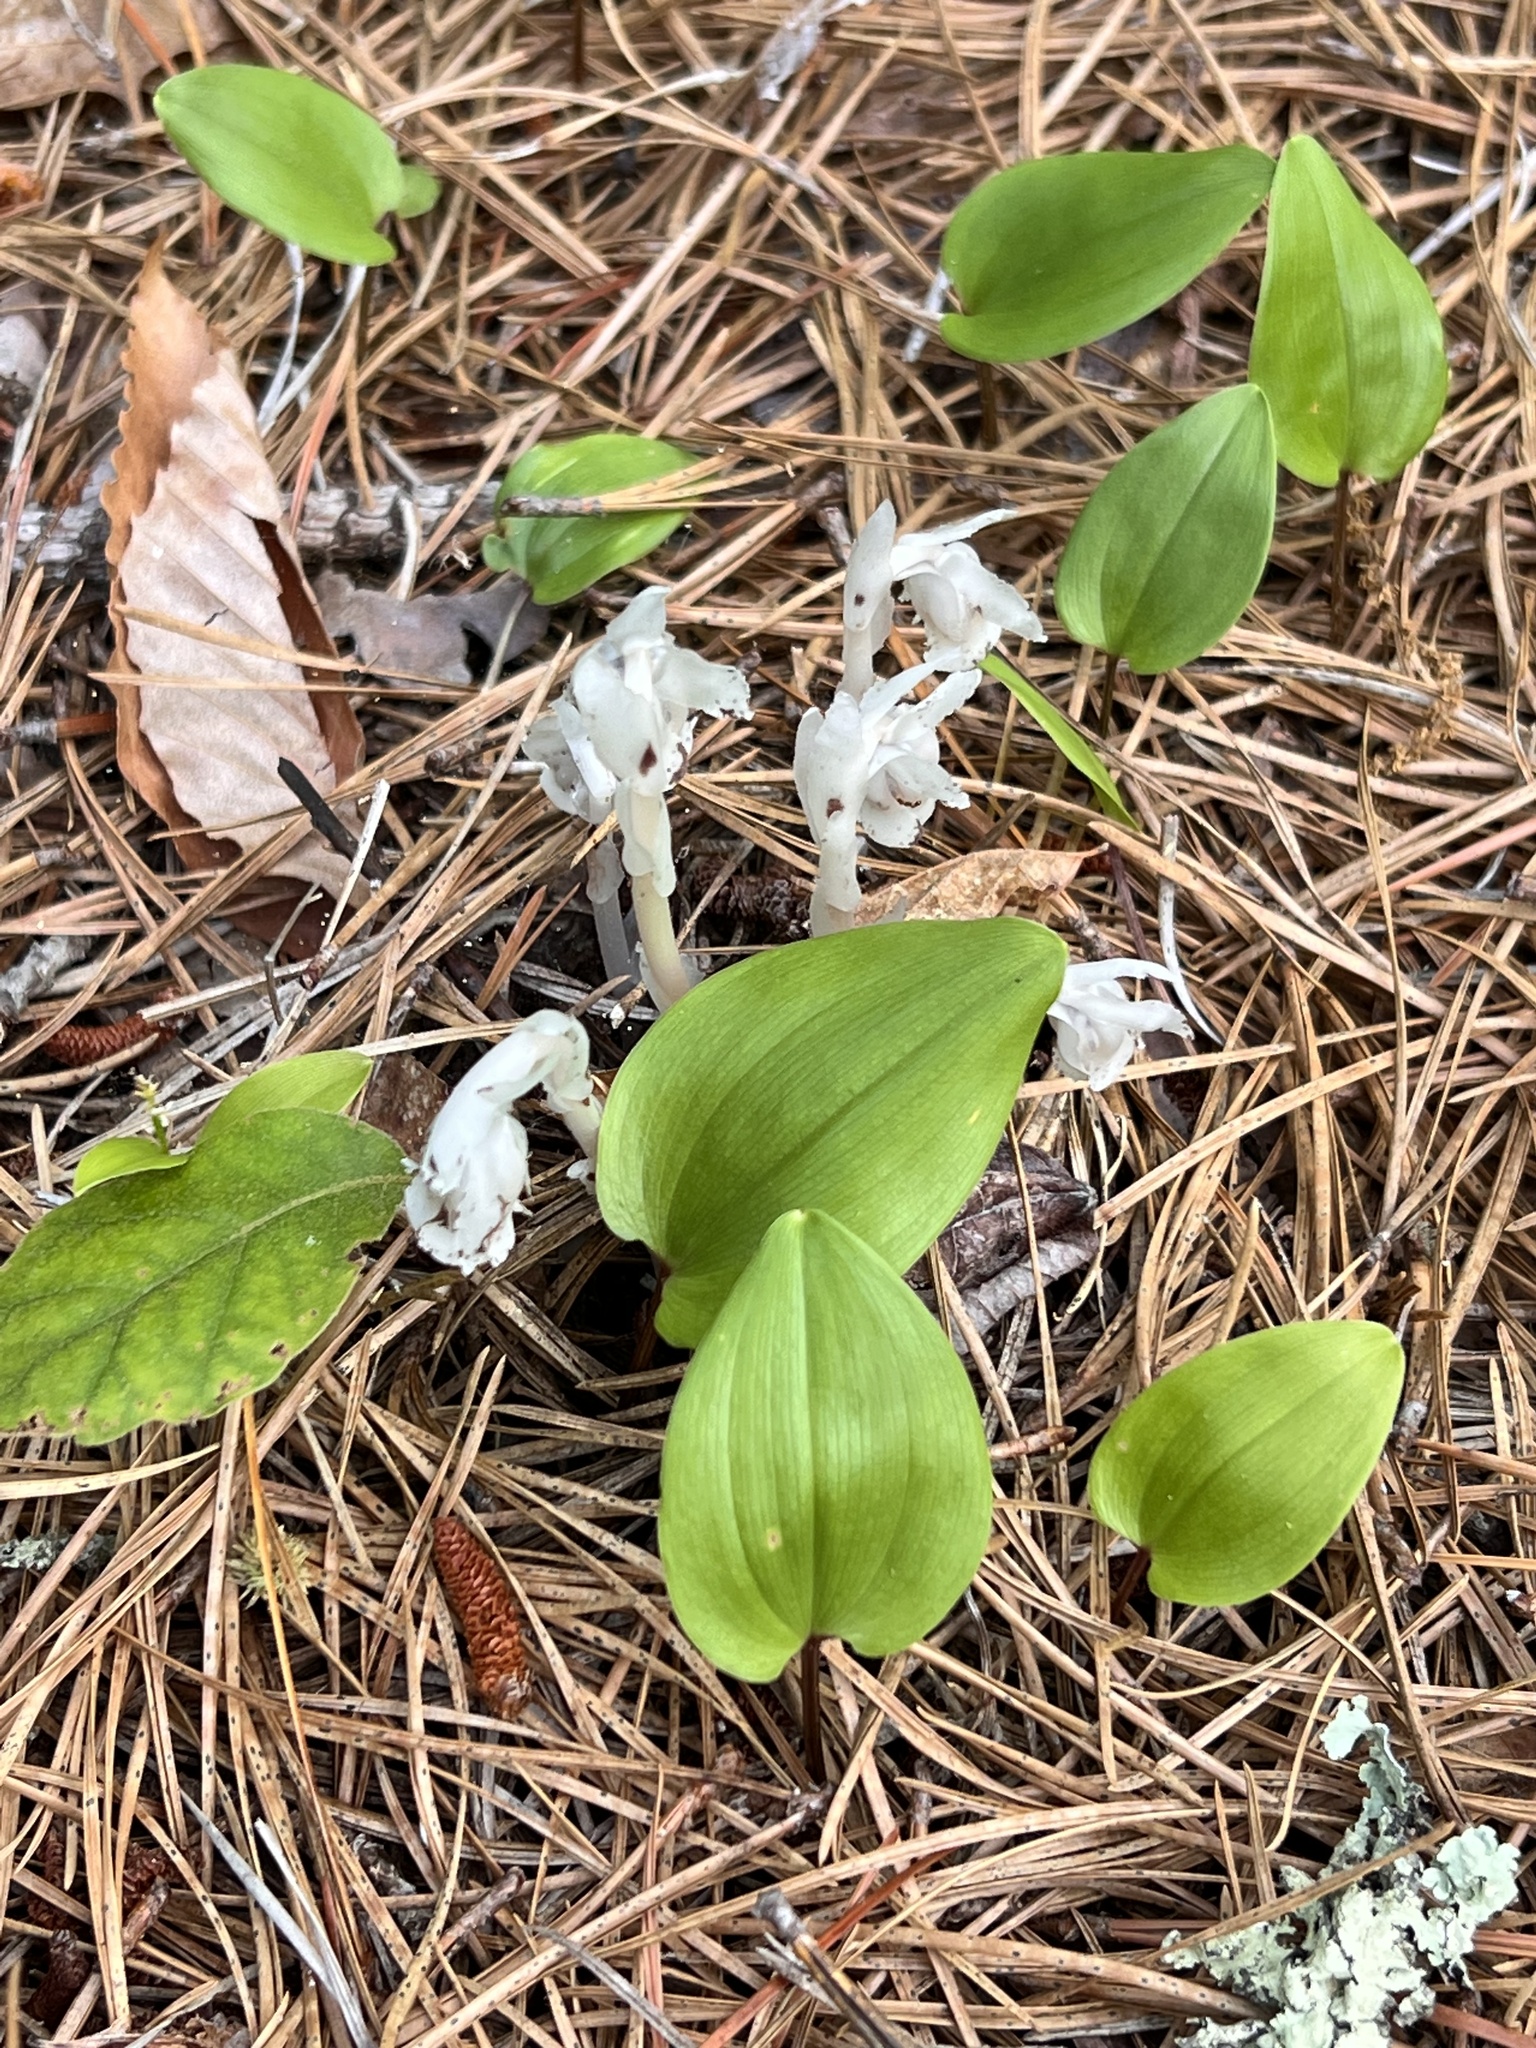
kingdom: Plantae
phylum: Tracheophyta
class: Magnoliopsida
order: Ericales
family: Ericaceae
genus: Monotropa
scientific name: Monotropa uniflora
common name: Convulsion root
